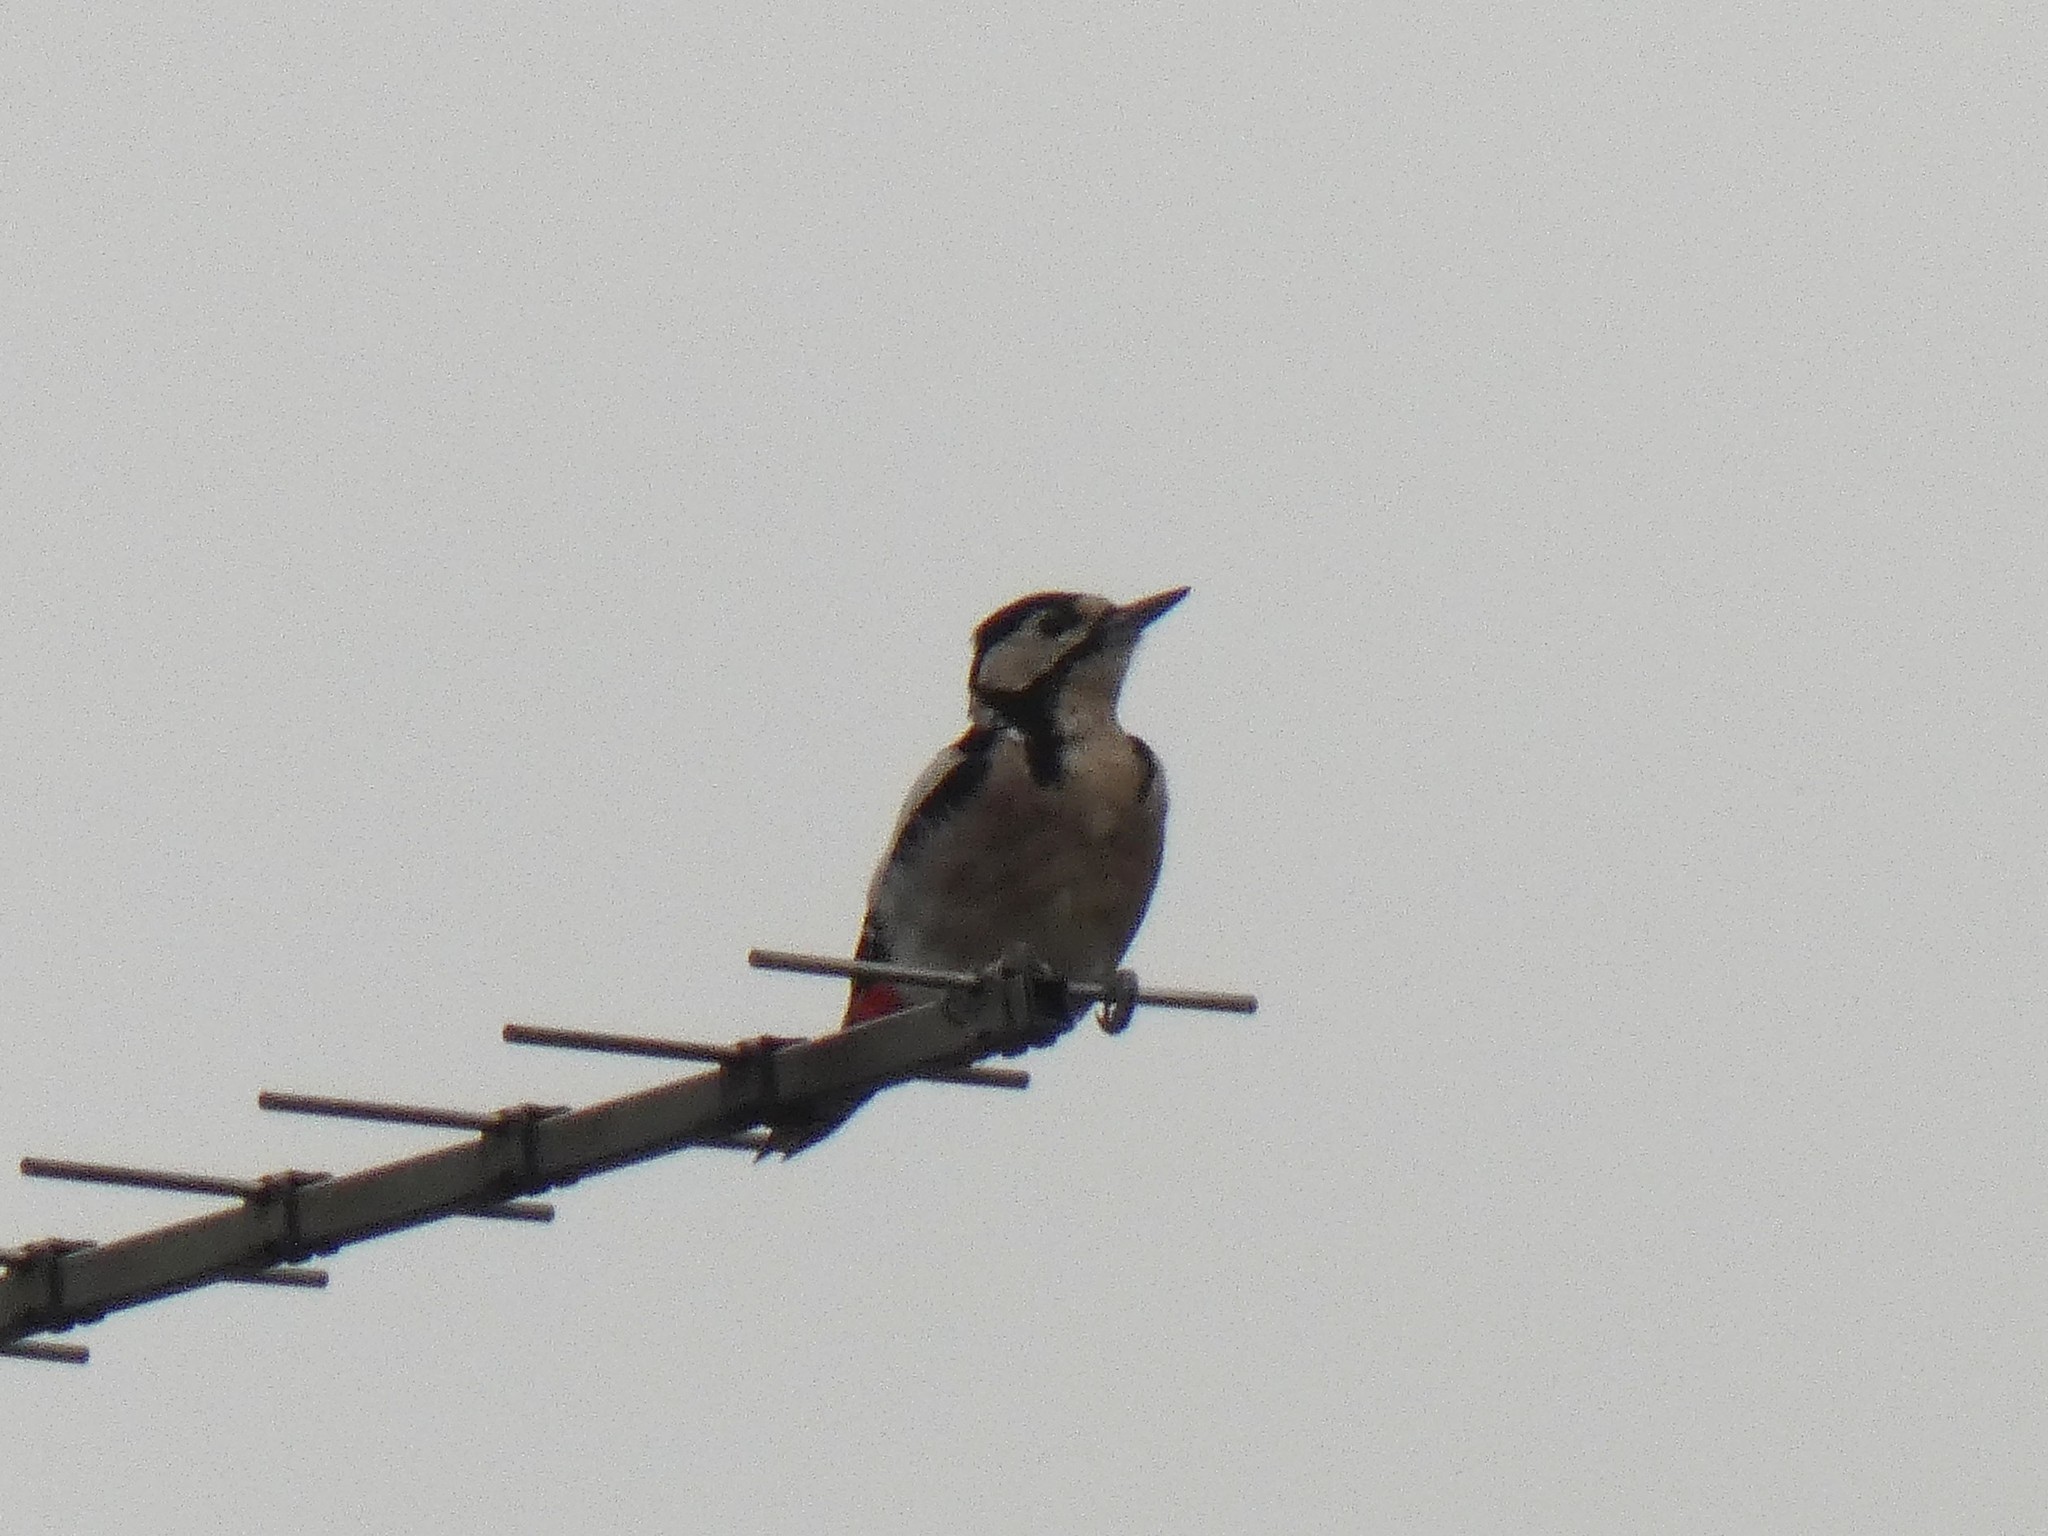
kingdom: Animalia
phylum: Chordata
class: Aves
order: Piciformes
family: Picidae
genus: Dendrocopos
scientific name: Dendrocopos major
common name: Great spotted woodpecker
